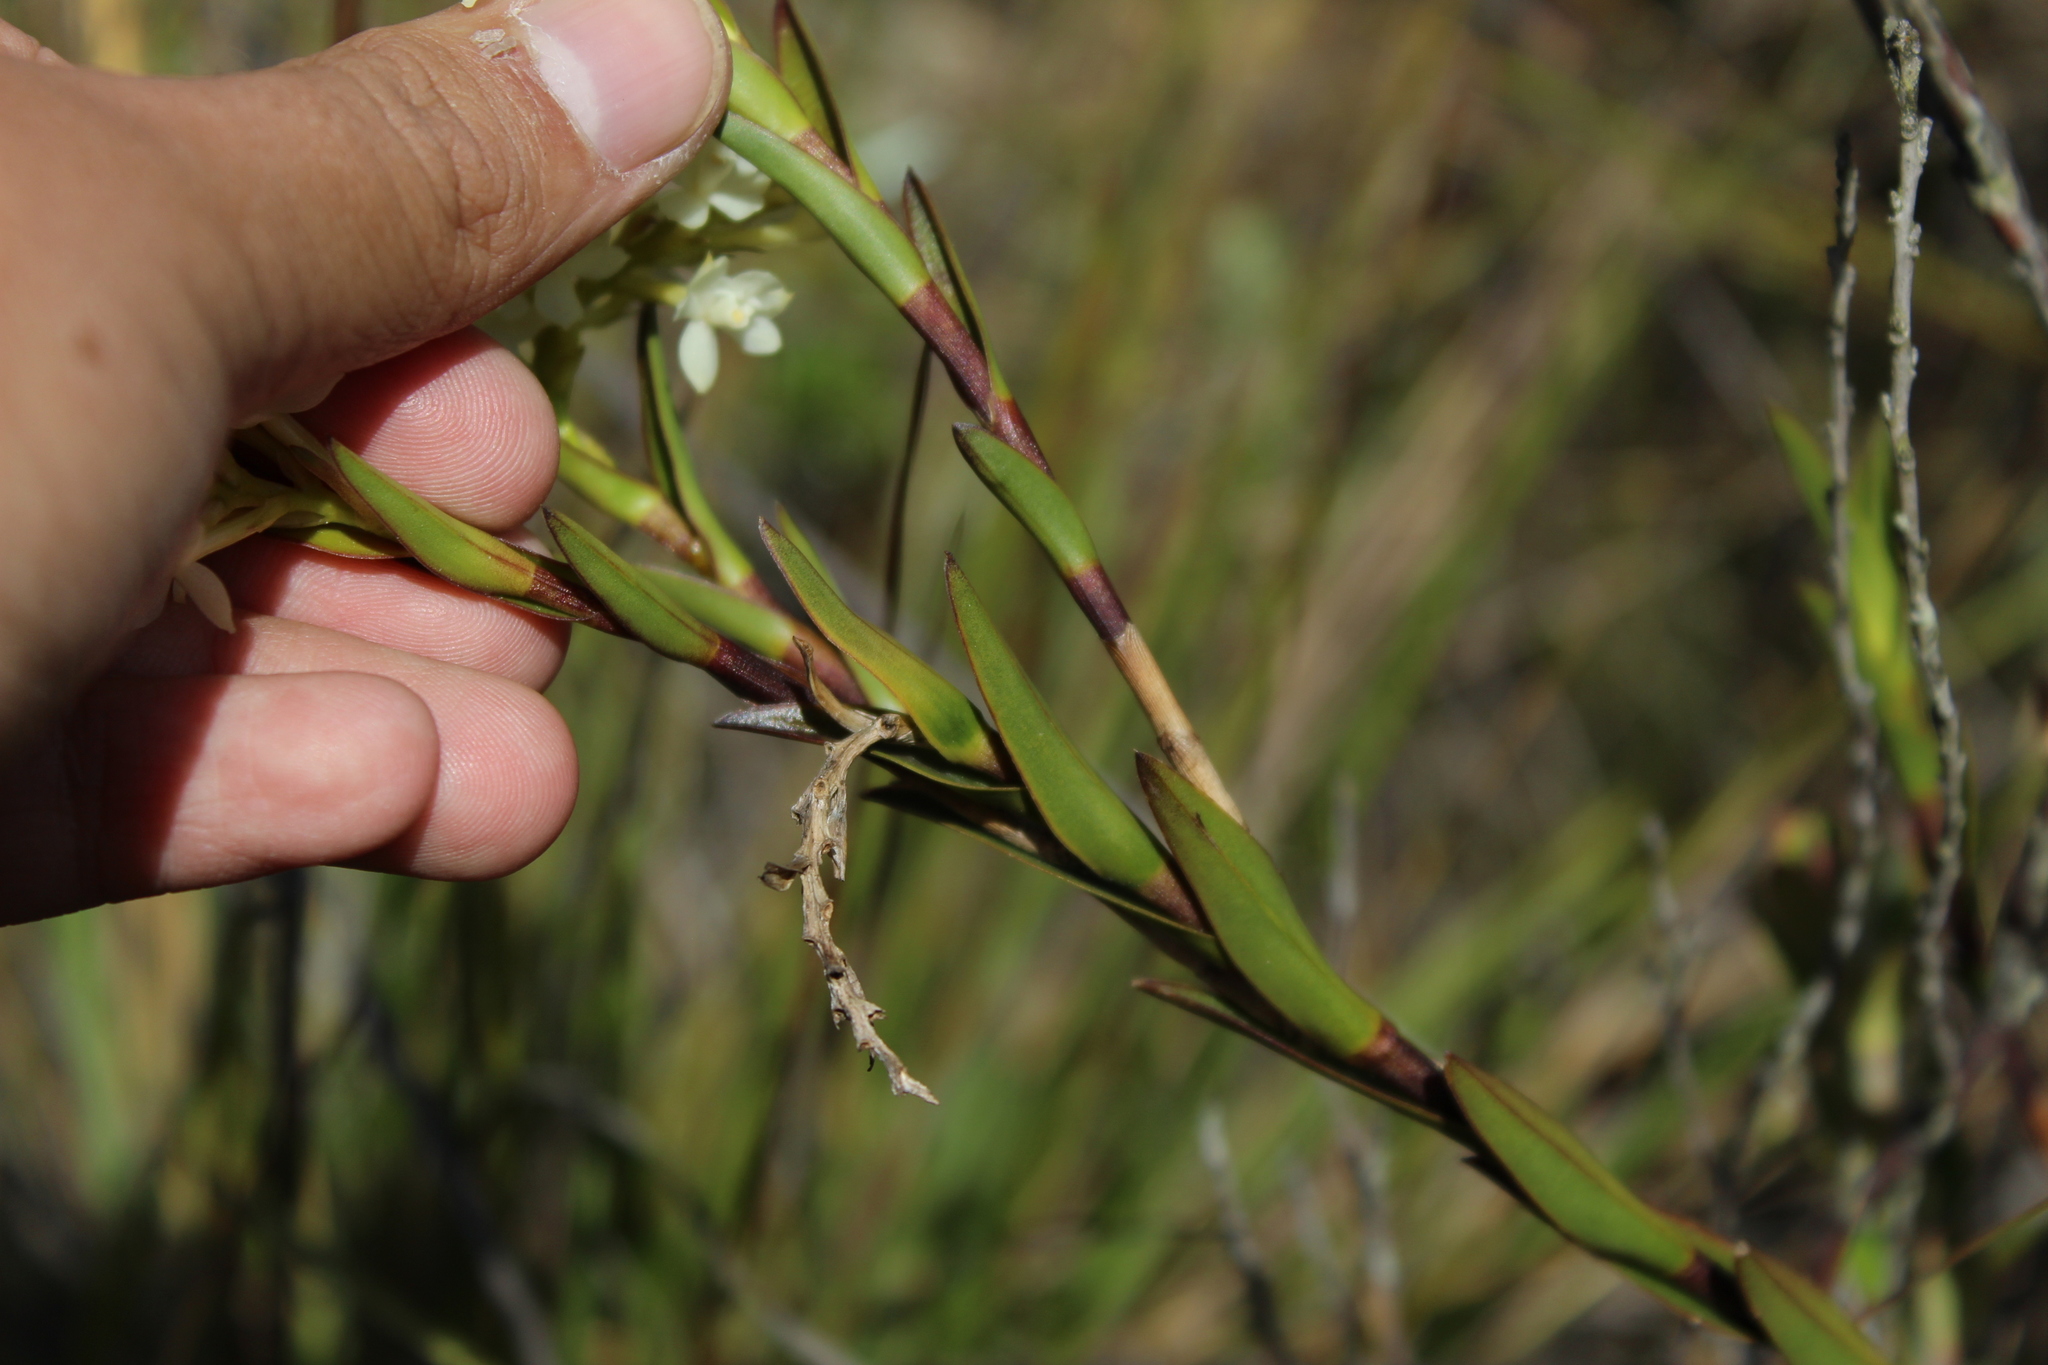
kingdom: Plantae
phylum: Tracheophyta
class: Liliopsida
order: Asparagales
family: Orchidaceae
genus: Epidendrum
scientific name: Epidendrum chioneum
